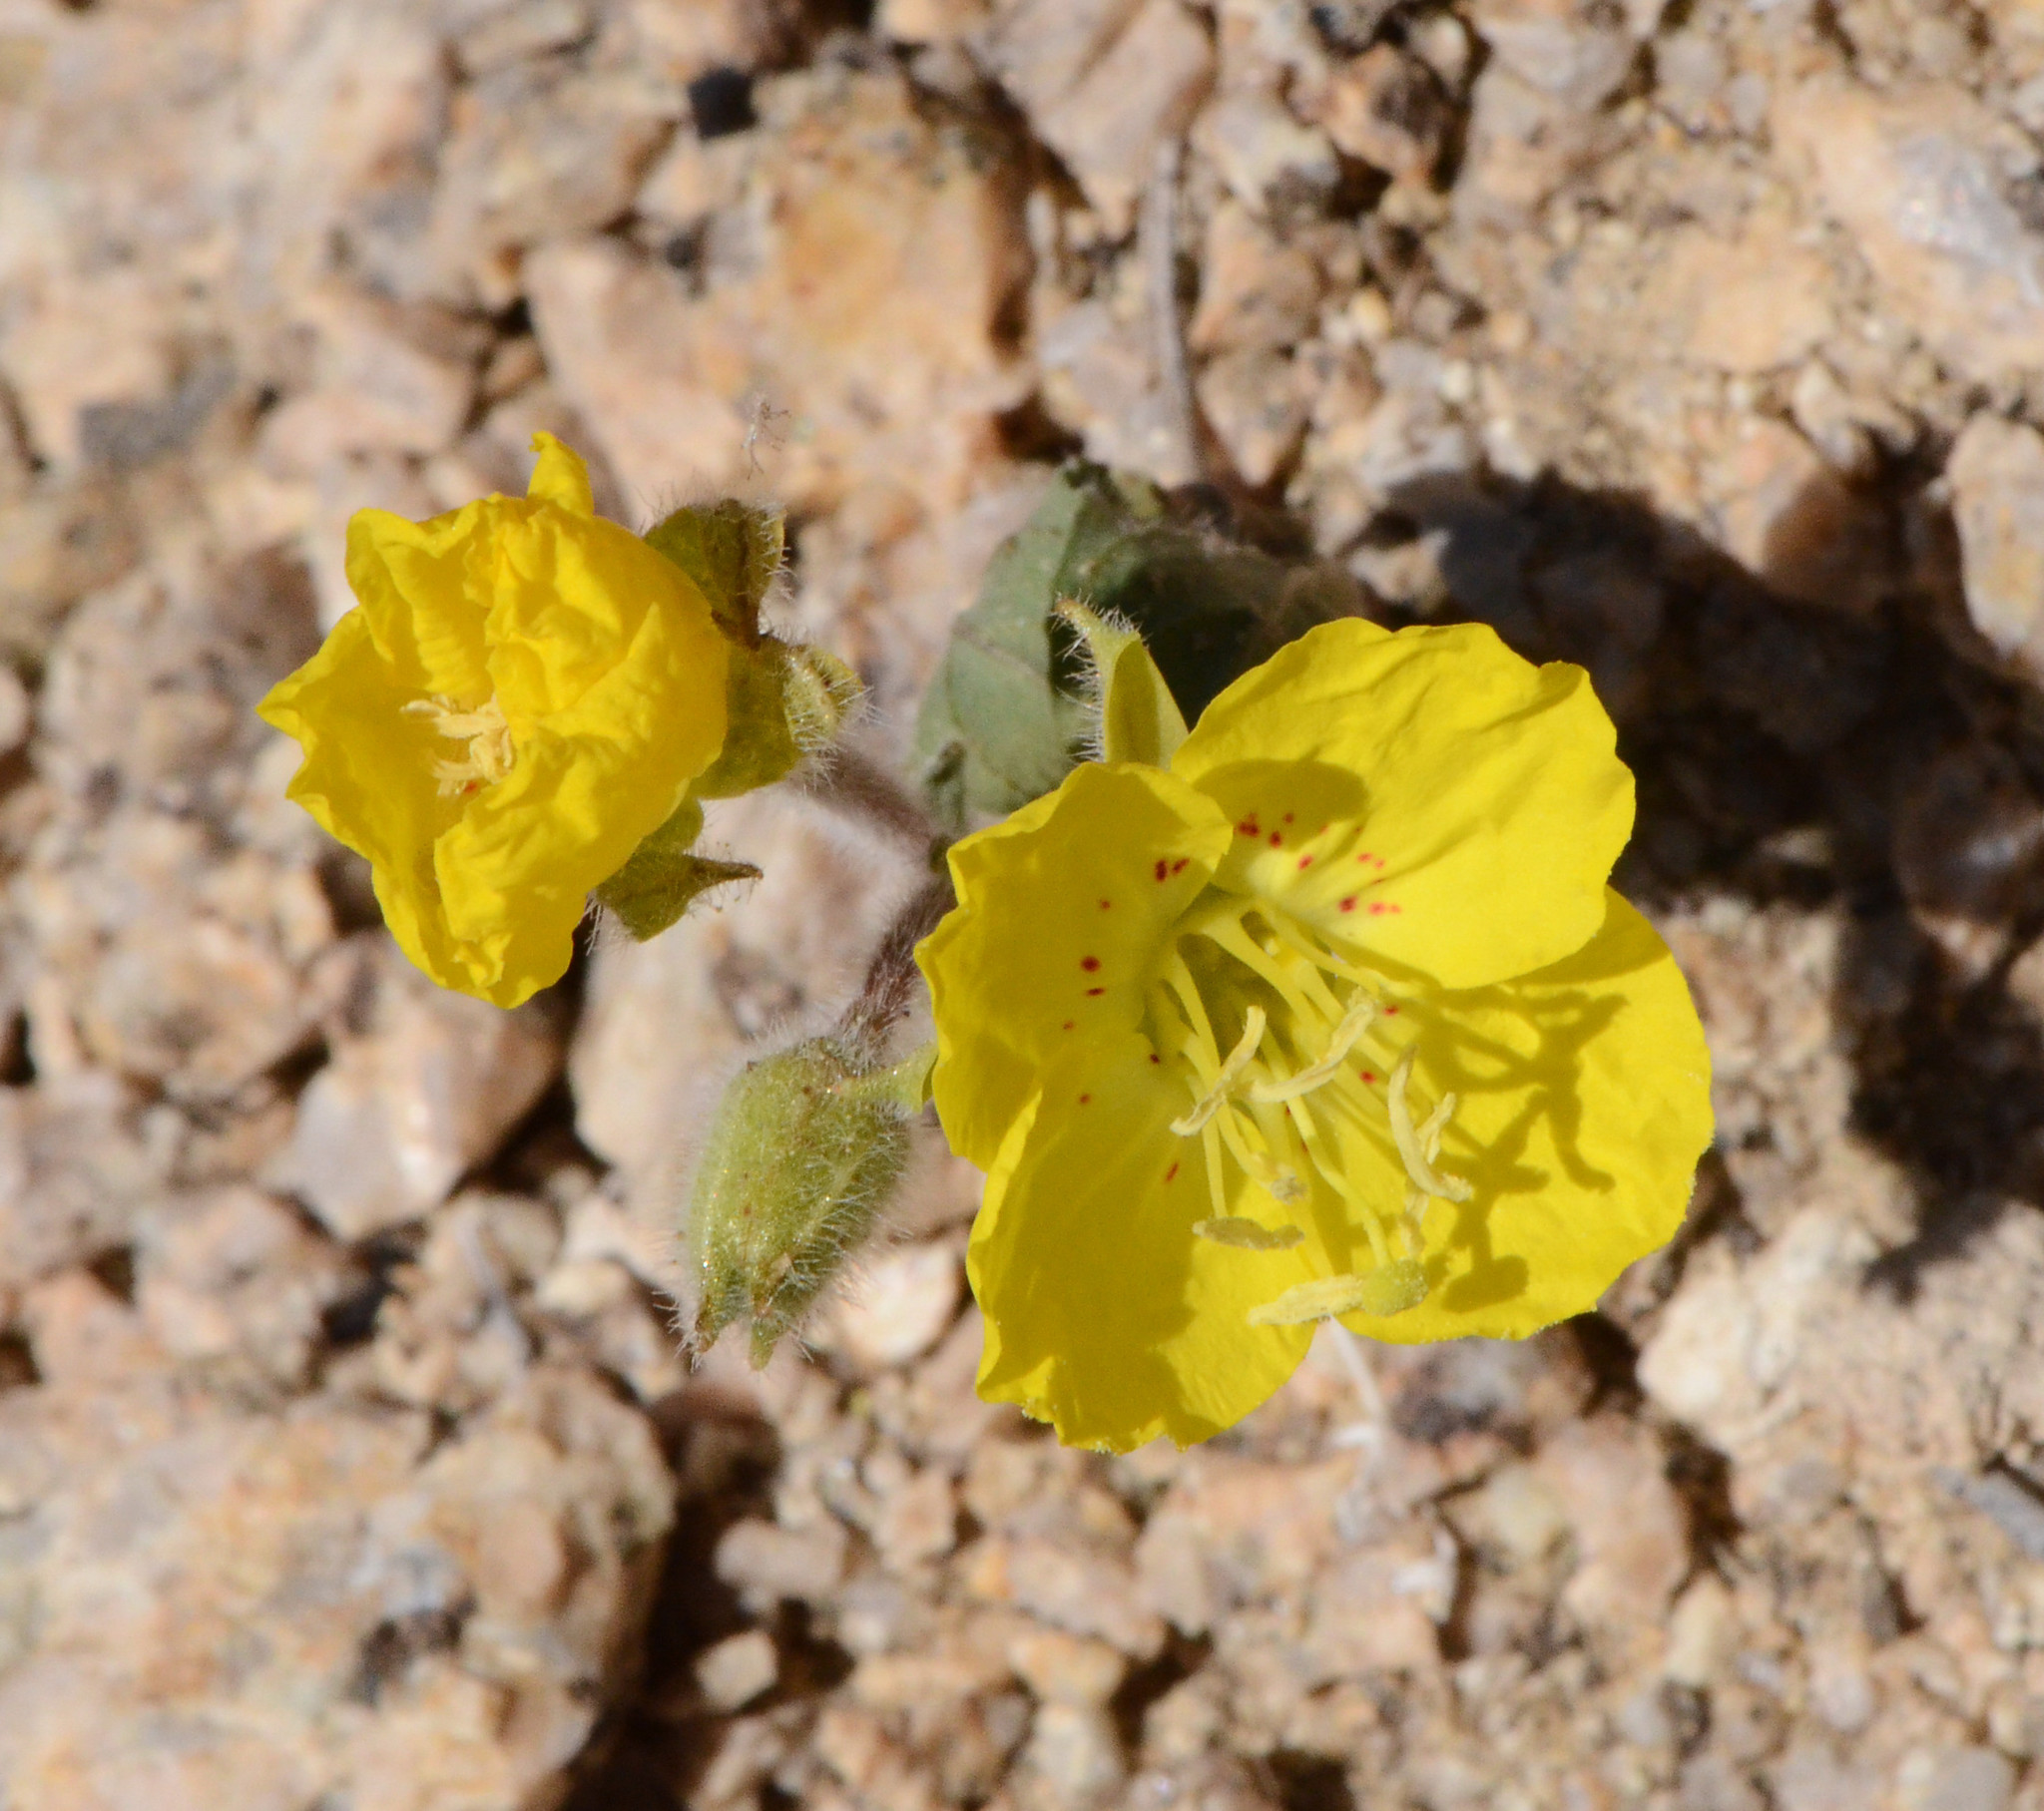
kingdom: Plantae
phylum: Tracheophyta
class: Magnoliopsida
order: Myrtales
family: Onagraceae
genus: Chylismia
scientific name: Chylismia brevipes
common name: Yellow cups
